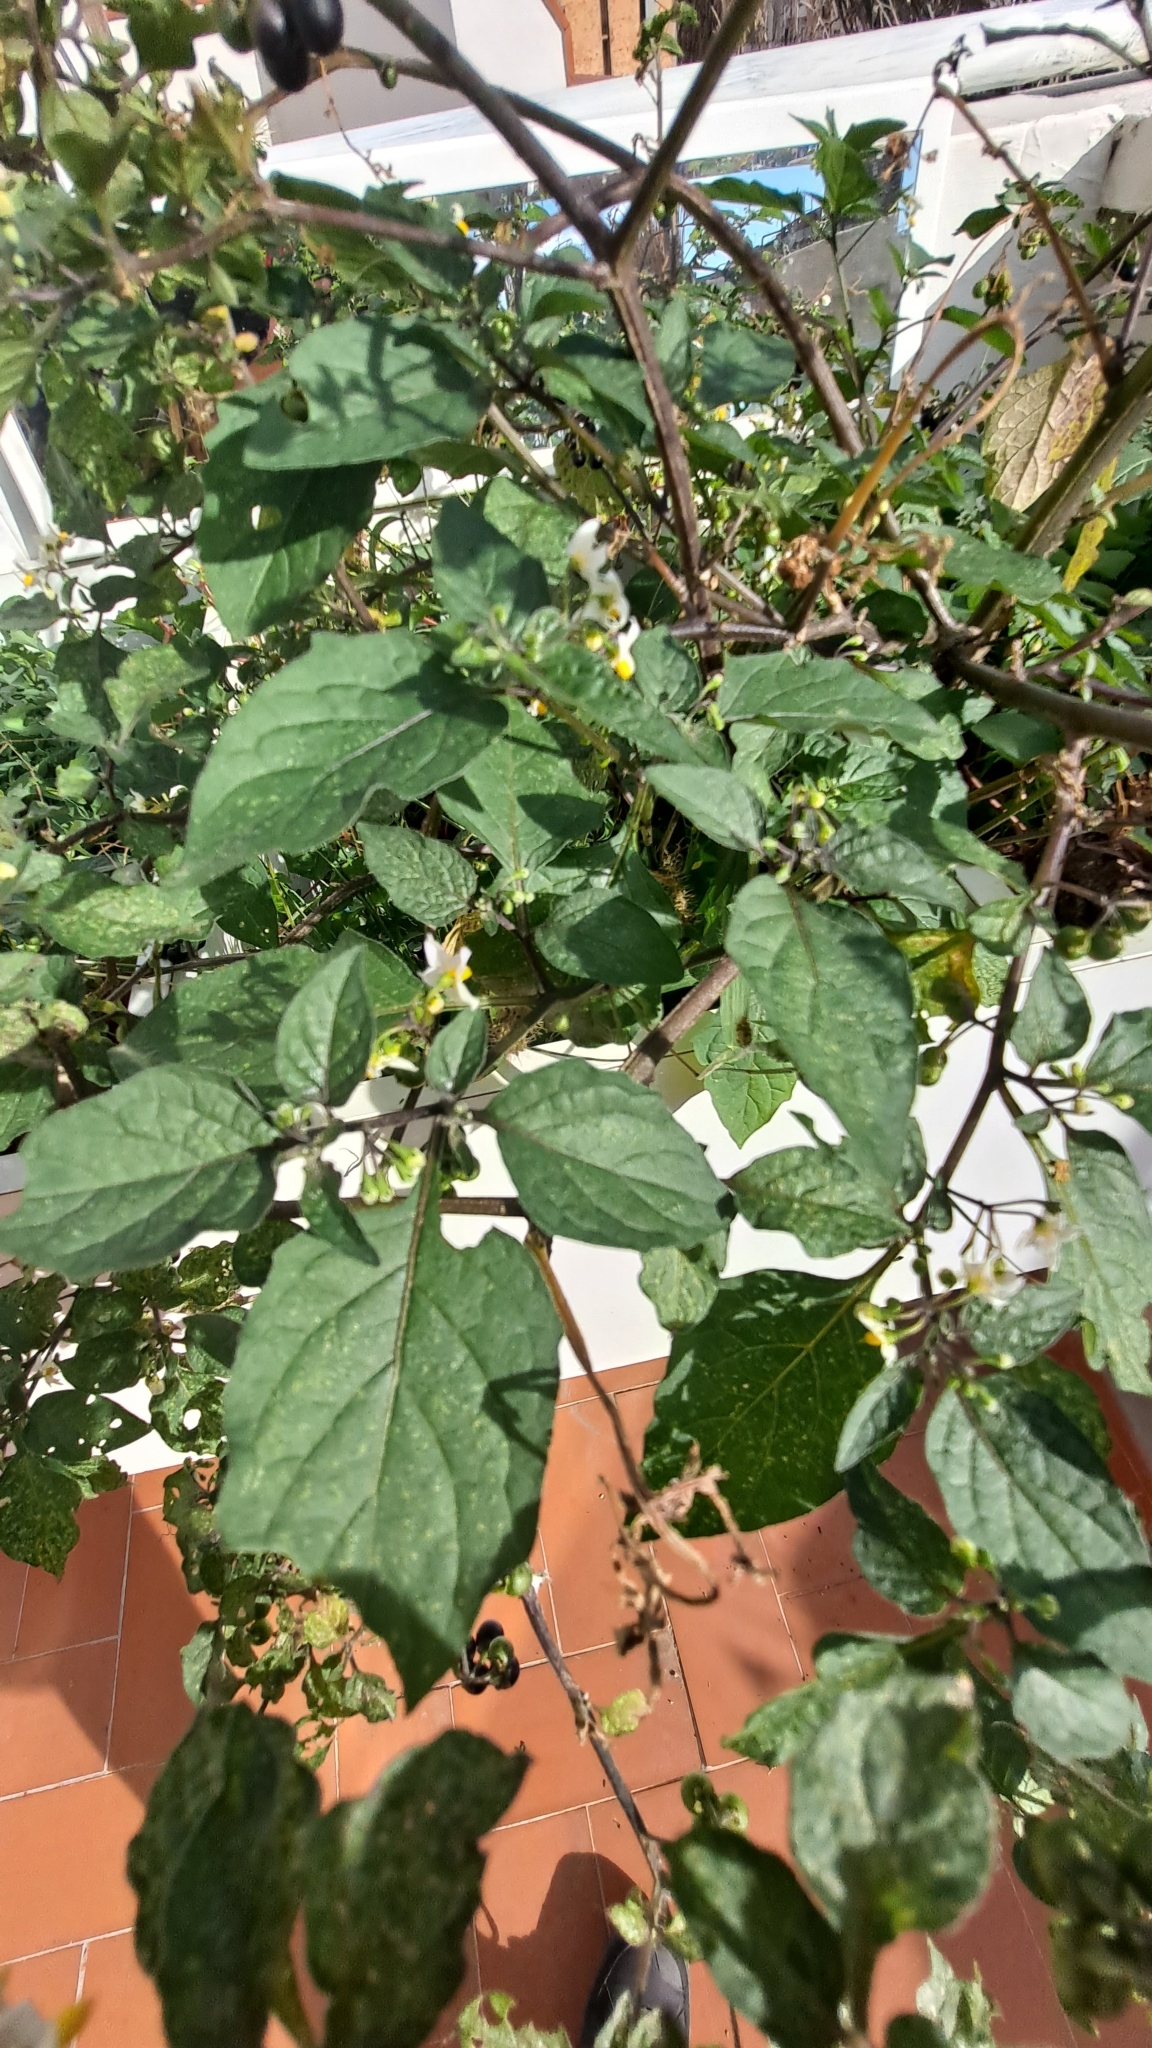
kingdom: Plantae
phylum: Tracheophyta
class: Magnoliopsida
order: Solanales
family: Solanaceae
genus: Solanum
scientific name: Solanum nigrum
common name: Black nightshade
